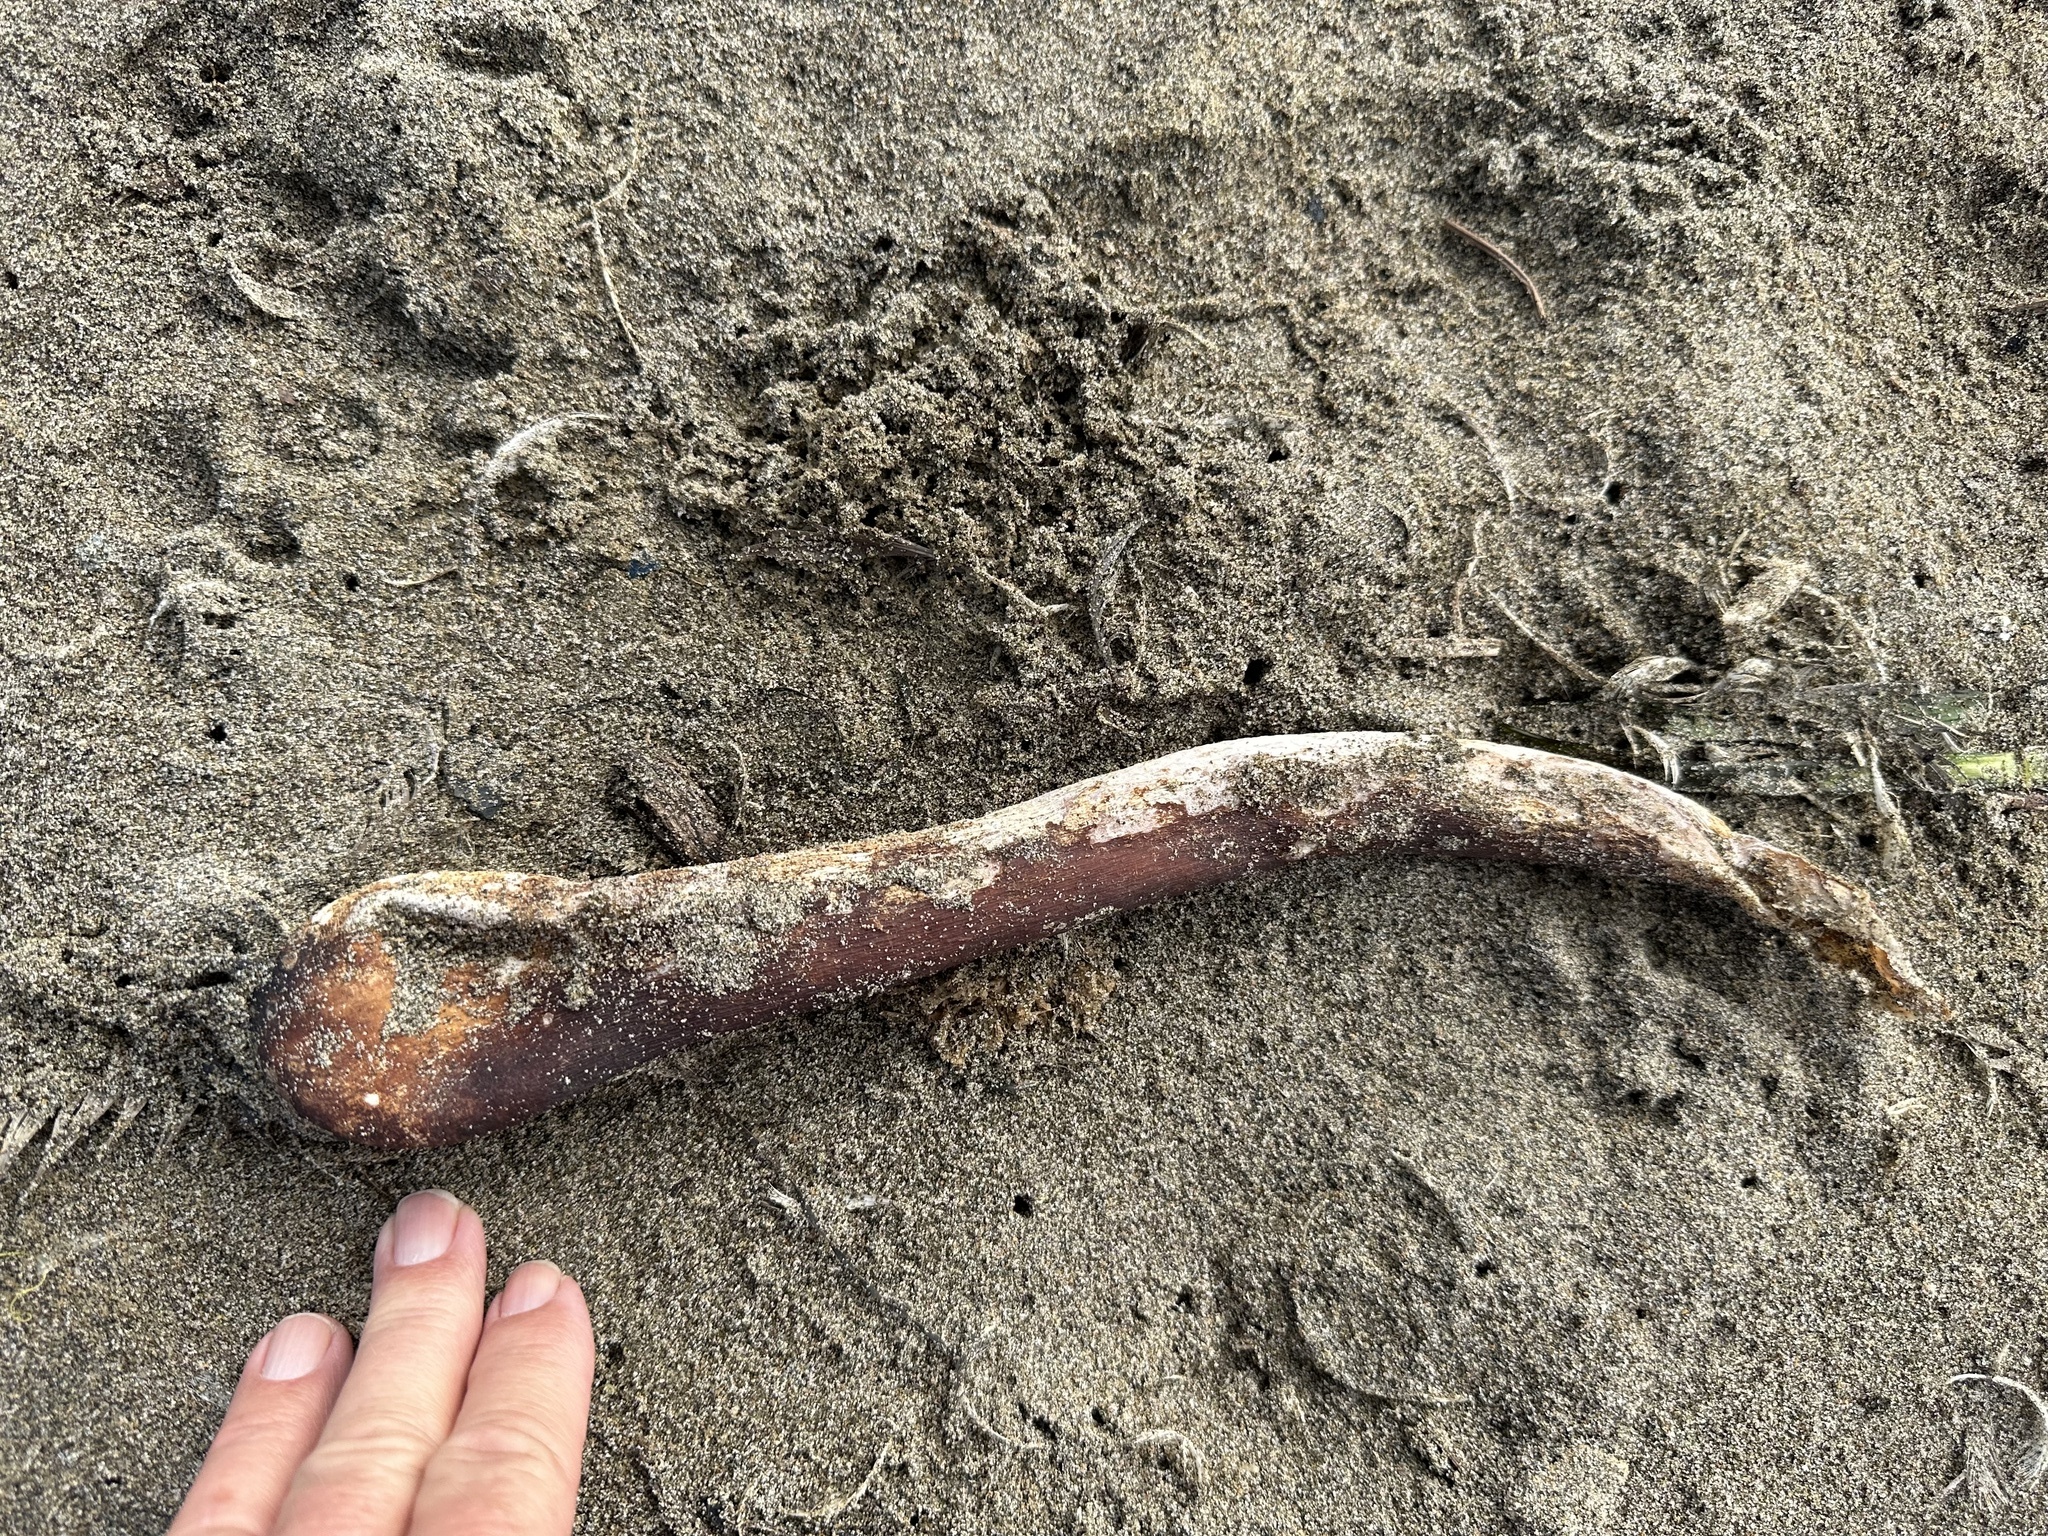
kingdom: Chromista
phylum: Ochrophyta
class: Phaeophyceae
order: Laminariales
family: Laminariaceae
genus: Nereocystis
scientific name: Nereocystis luetkeana
